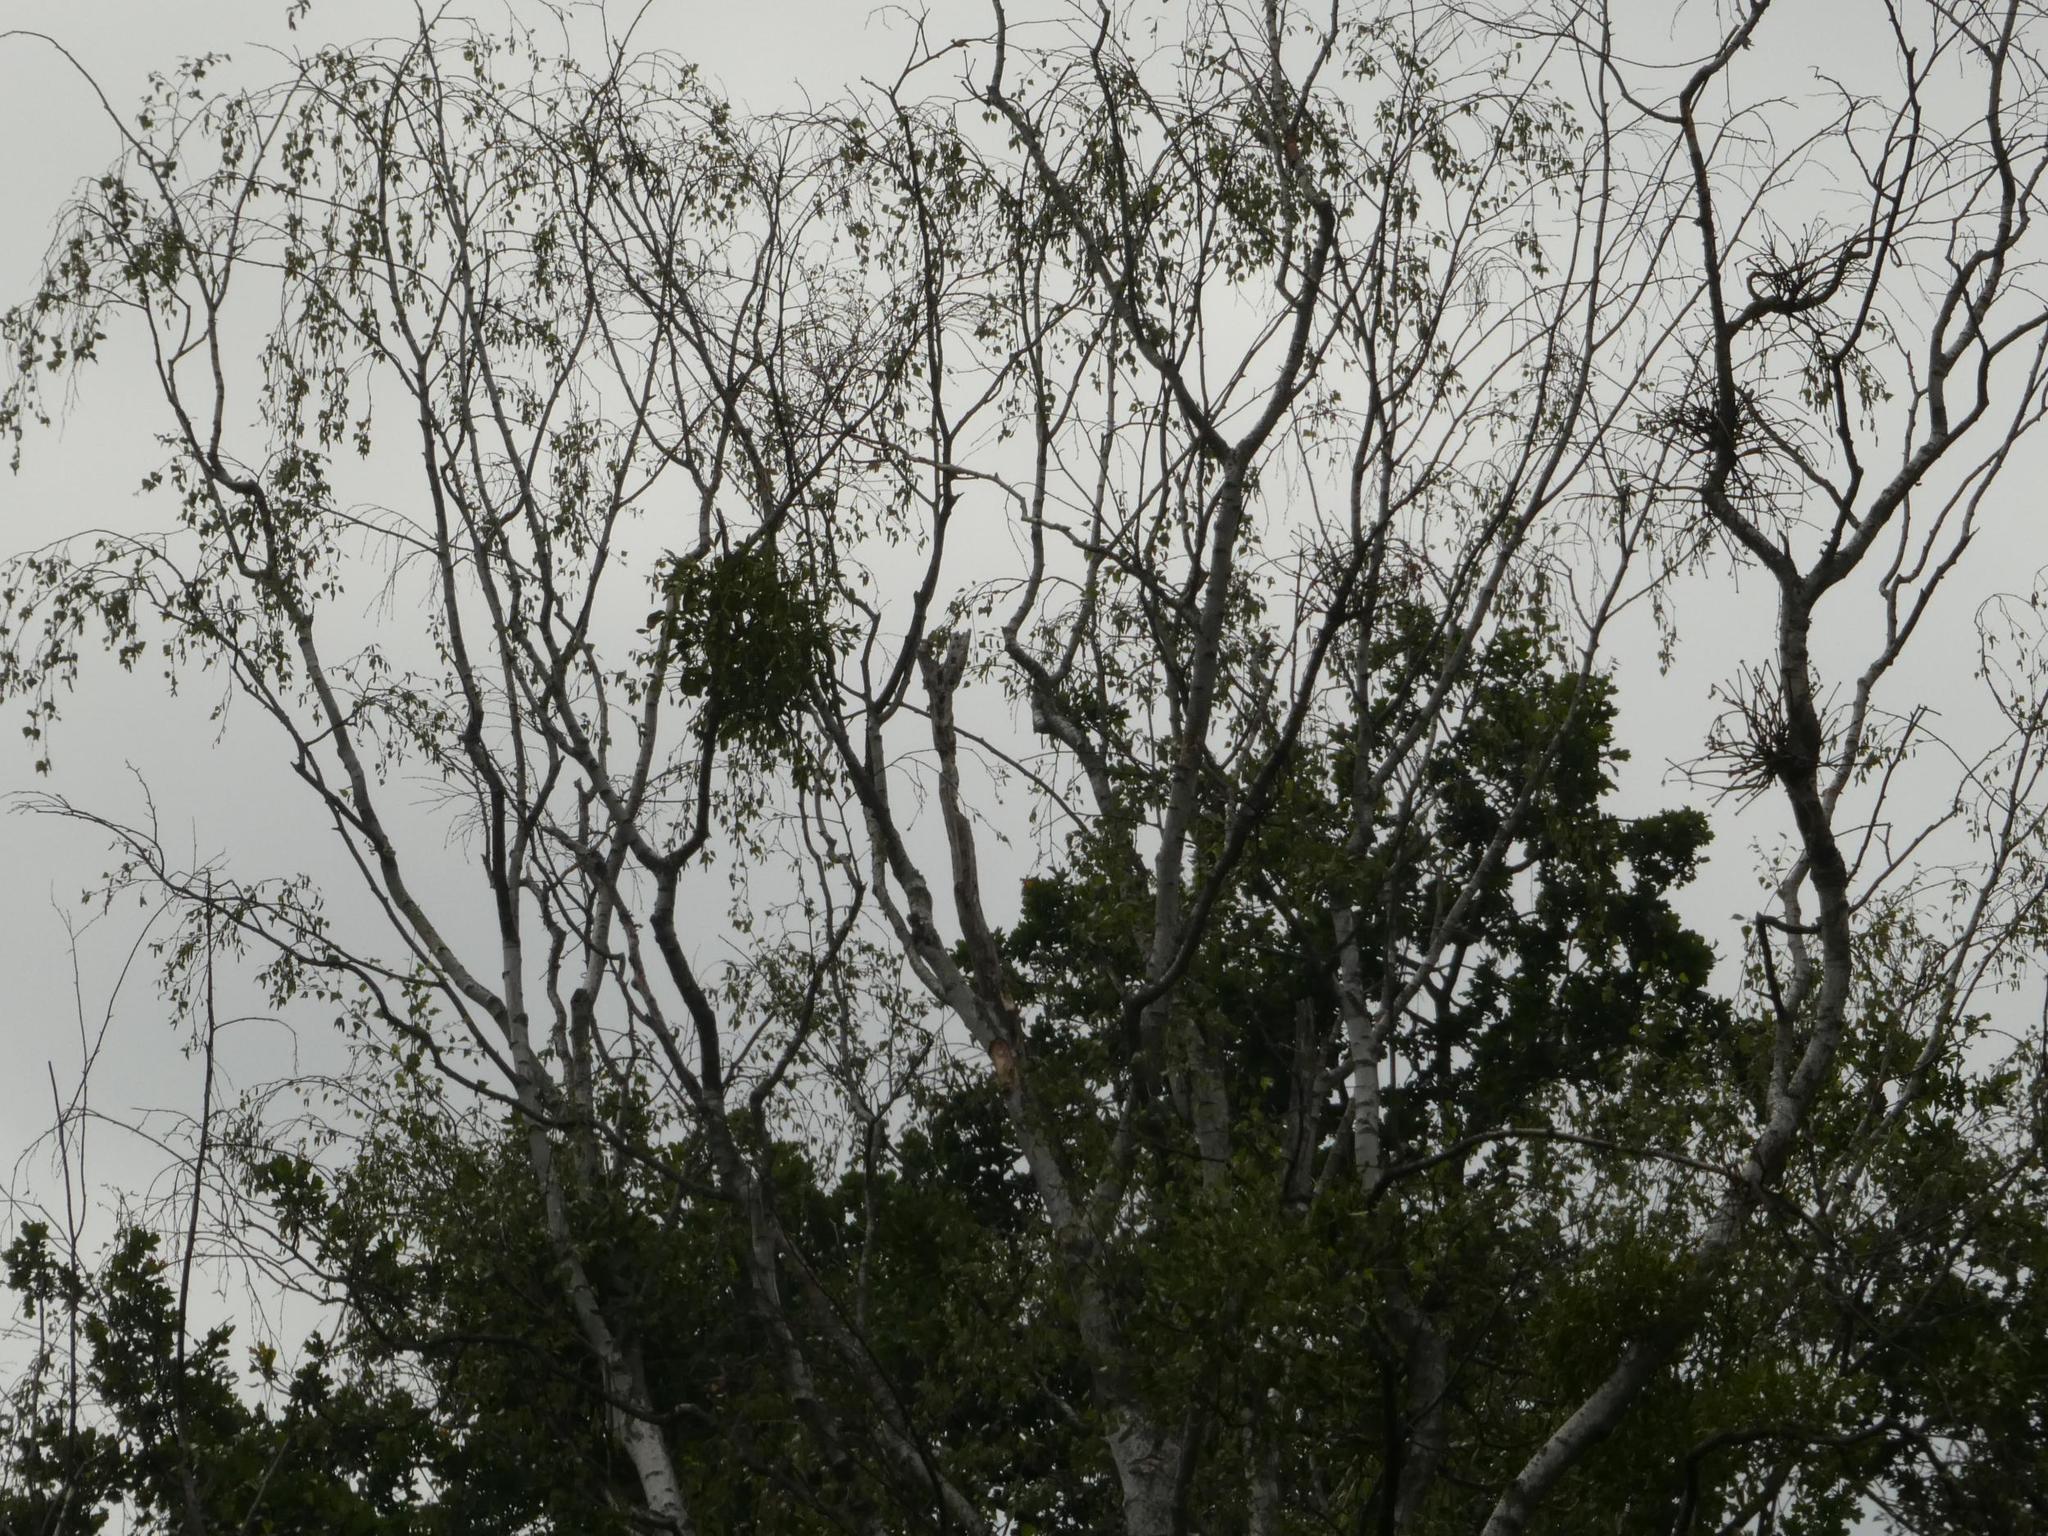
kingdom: Plantae
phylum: Tracheophyta
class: Magnoliopsida
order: Santalales
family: Viscaceae
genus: Viscum
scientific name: Viscum album
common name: Mistletoe
